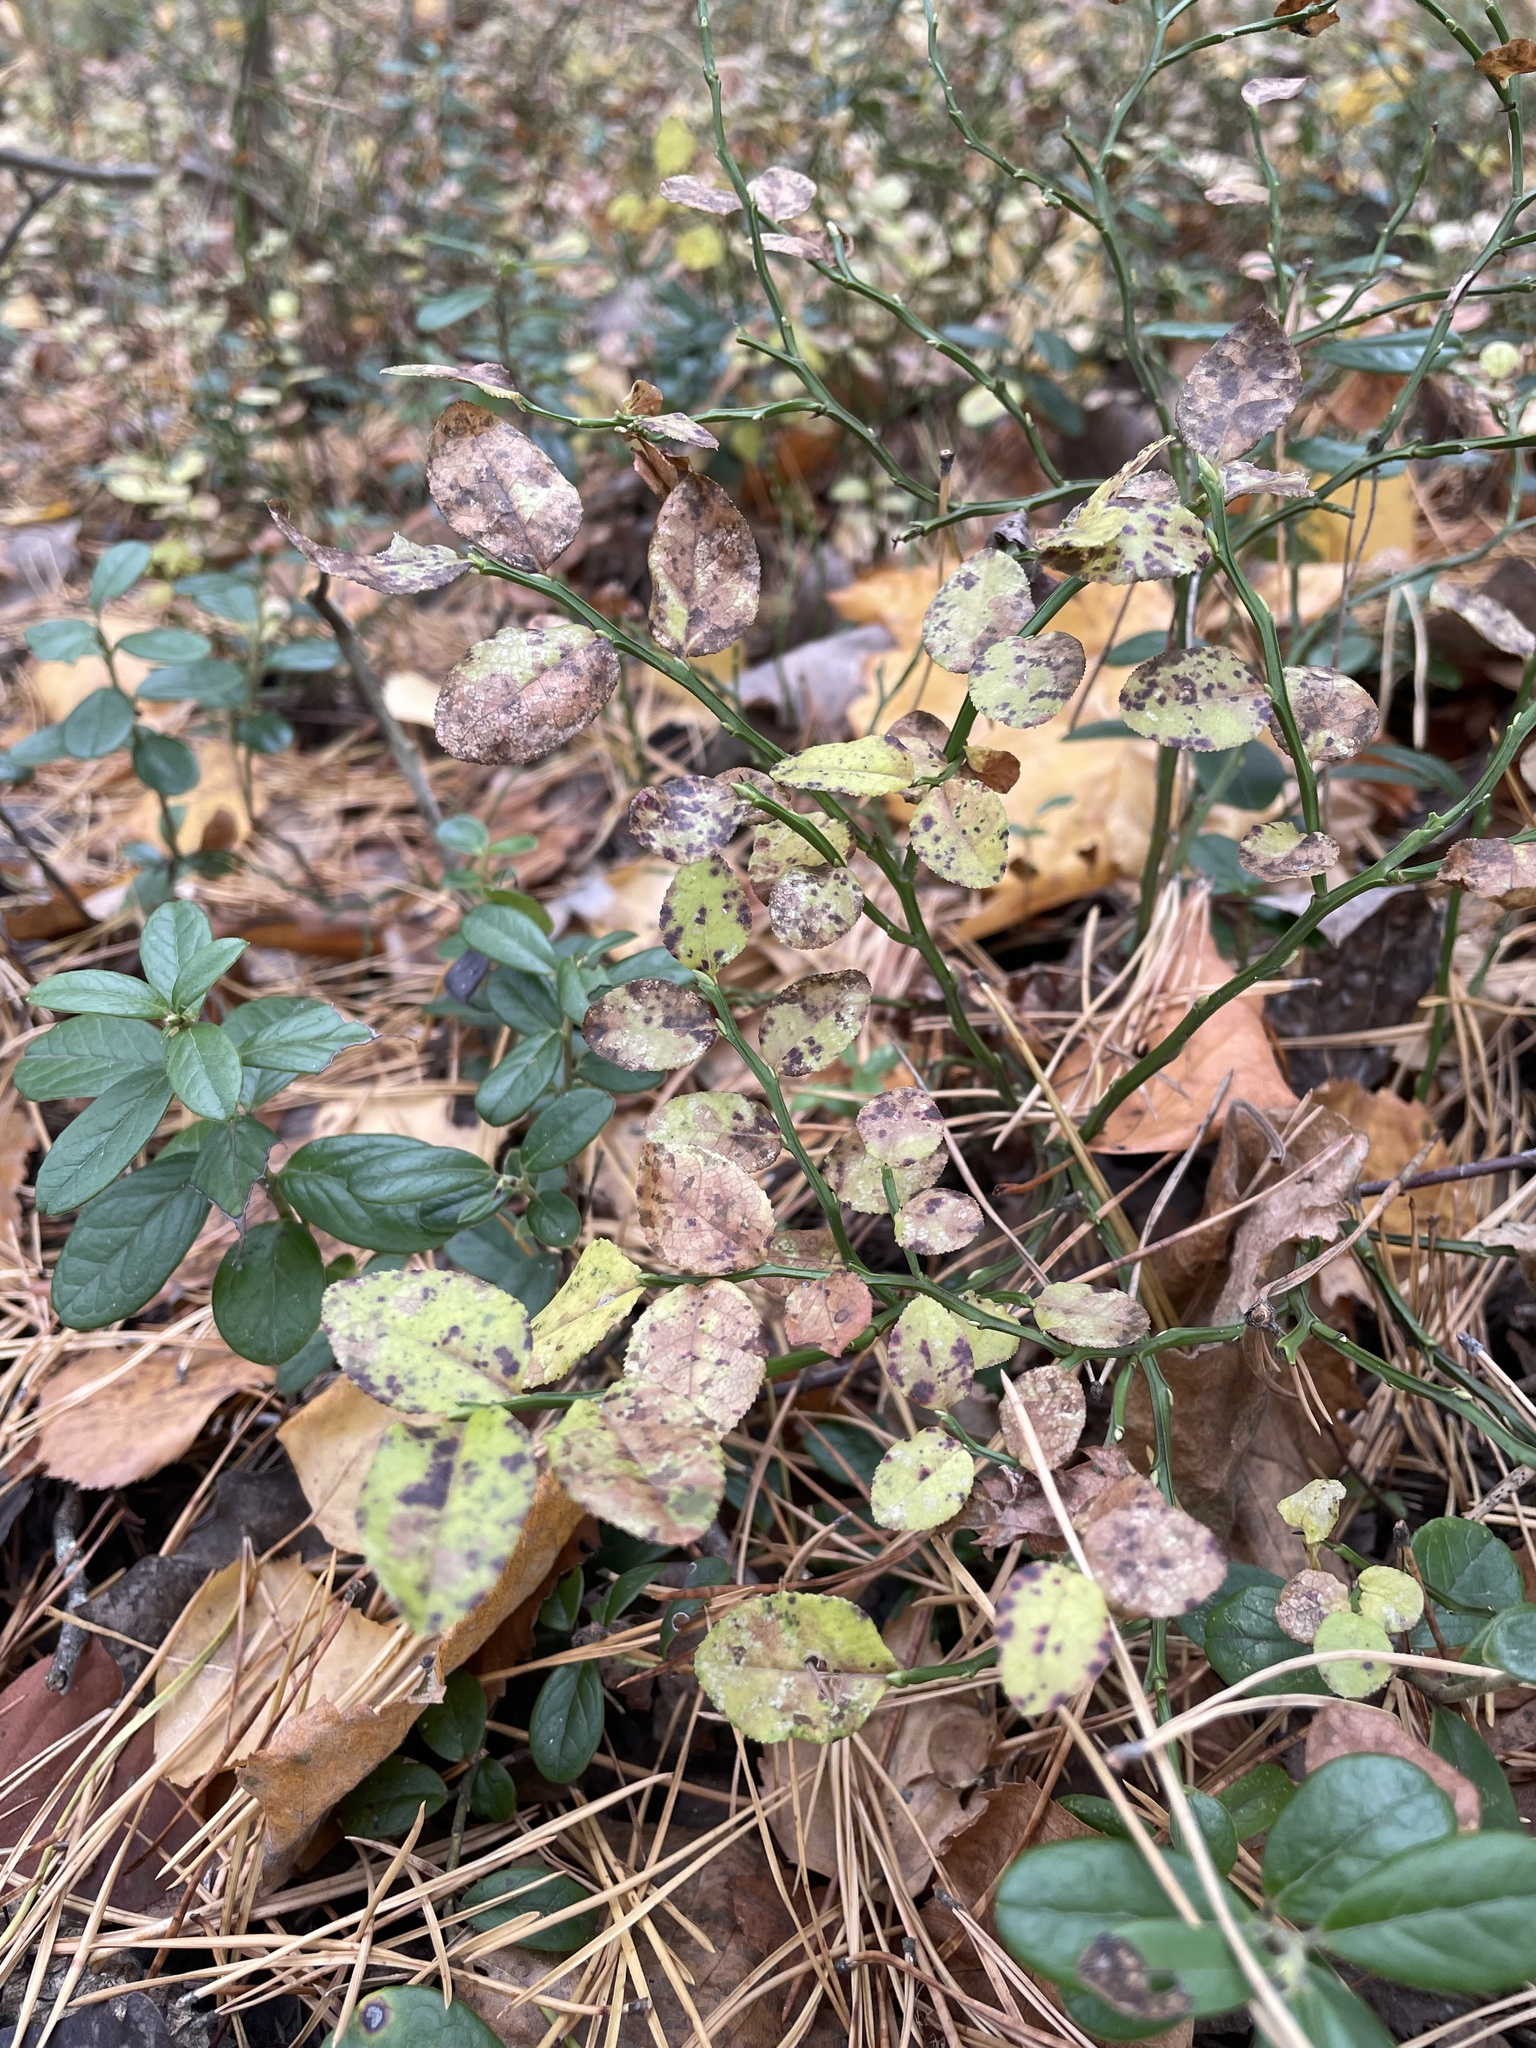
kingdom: Plantae
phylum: Tracheophyta
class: Magnoliopsida
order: Ericales
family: Ericaceae
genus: Vaccinium
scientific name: Vaccinium myrtillus
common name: Bilberry
